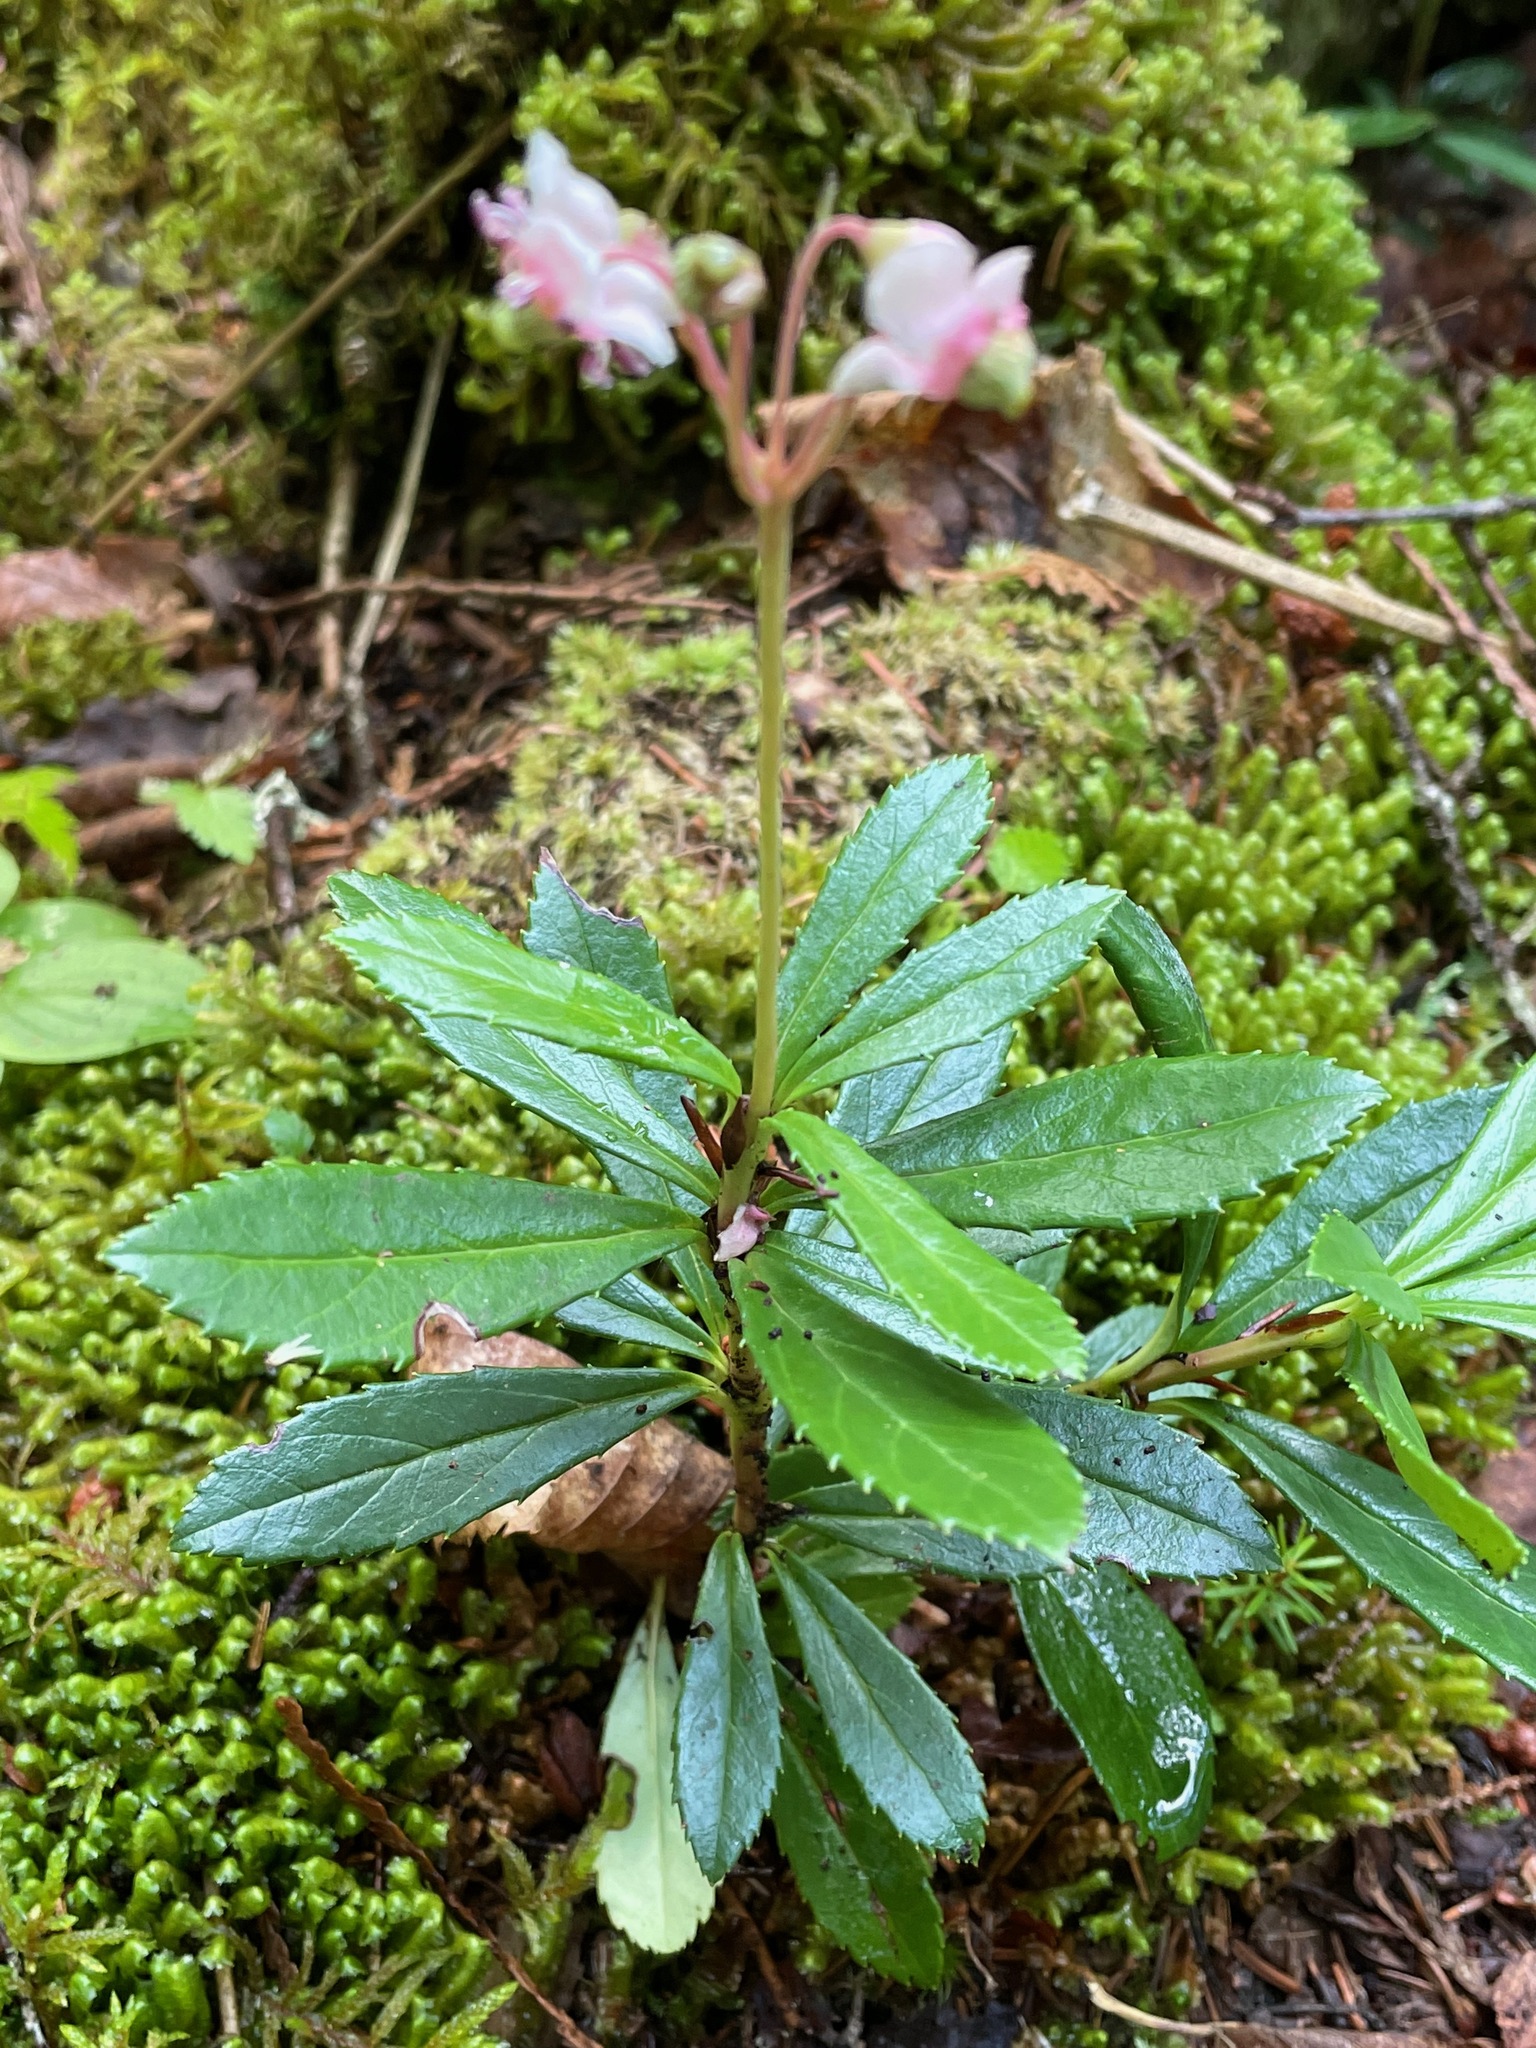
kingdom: Plantae
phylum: Tracheophyta
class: Magnoliopsida
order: Ericales
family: Ericaceae
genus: Chimaphila
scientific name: Chimaphila umbellata
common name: Pipsissewa
